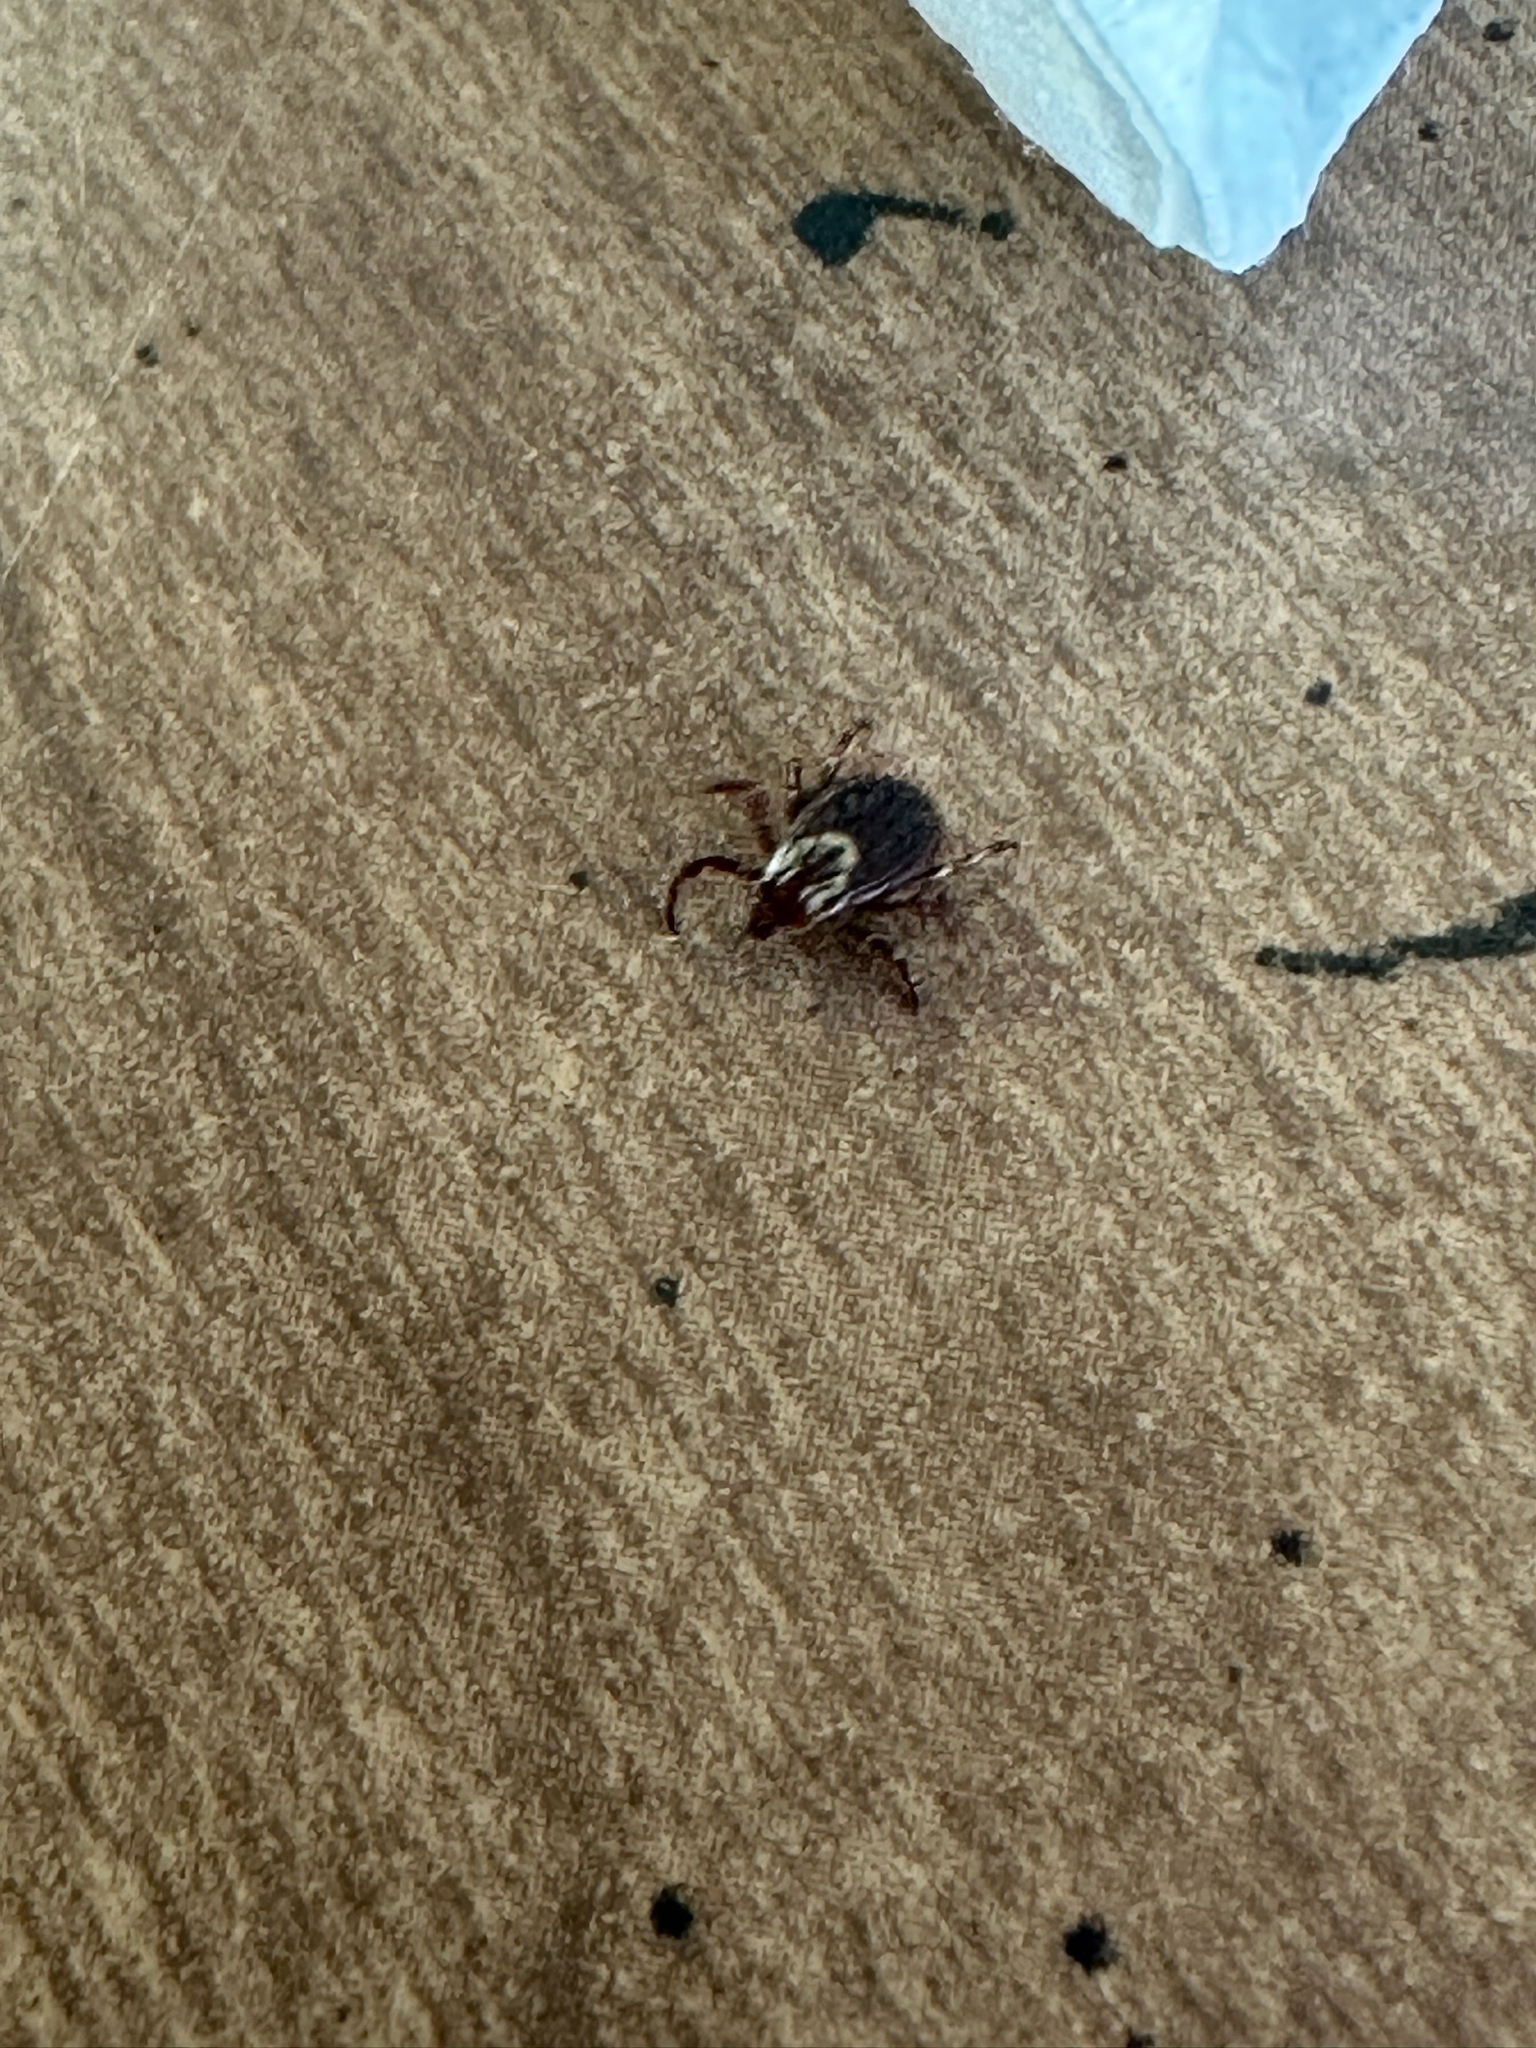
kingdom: Animalia
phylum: Arthropoda
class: Arachnida
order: Ixodida
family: Ixodidae
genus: Dermacentor
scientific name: Dermacentor variabilis
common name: American dog tick
